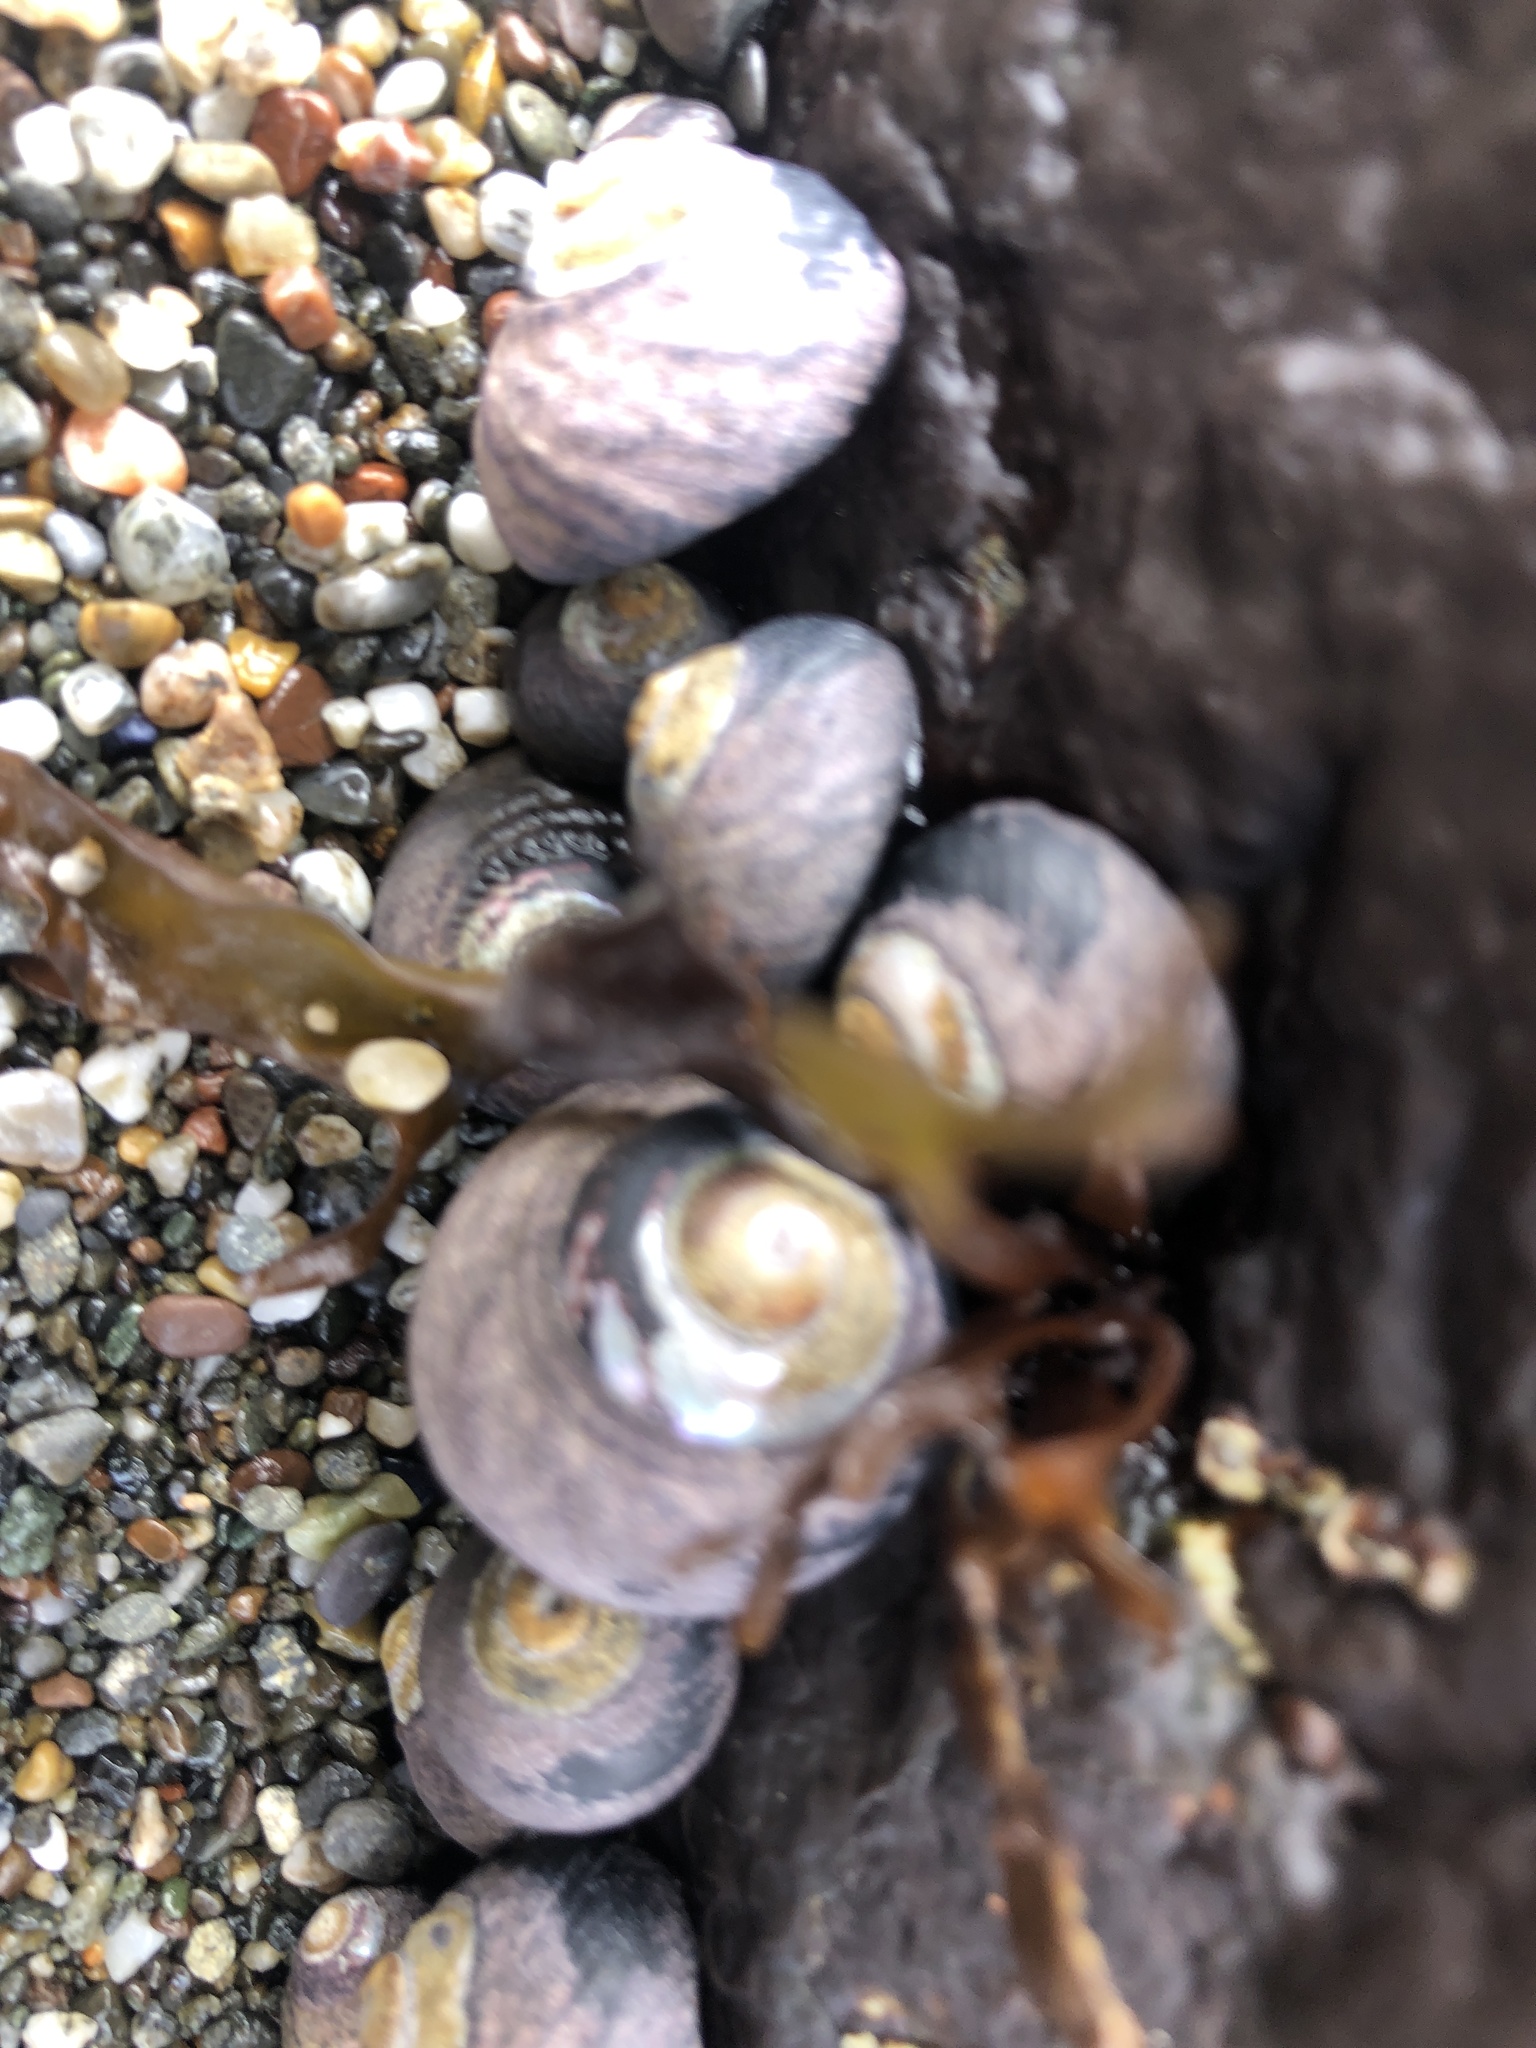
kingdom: Animalia
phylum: Mollusca
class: Gastropoda
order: Trochida
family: Tegulidae
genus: Tegula
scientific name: Tegula funebralis
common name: Black tegula
